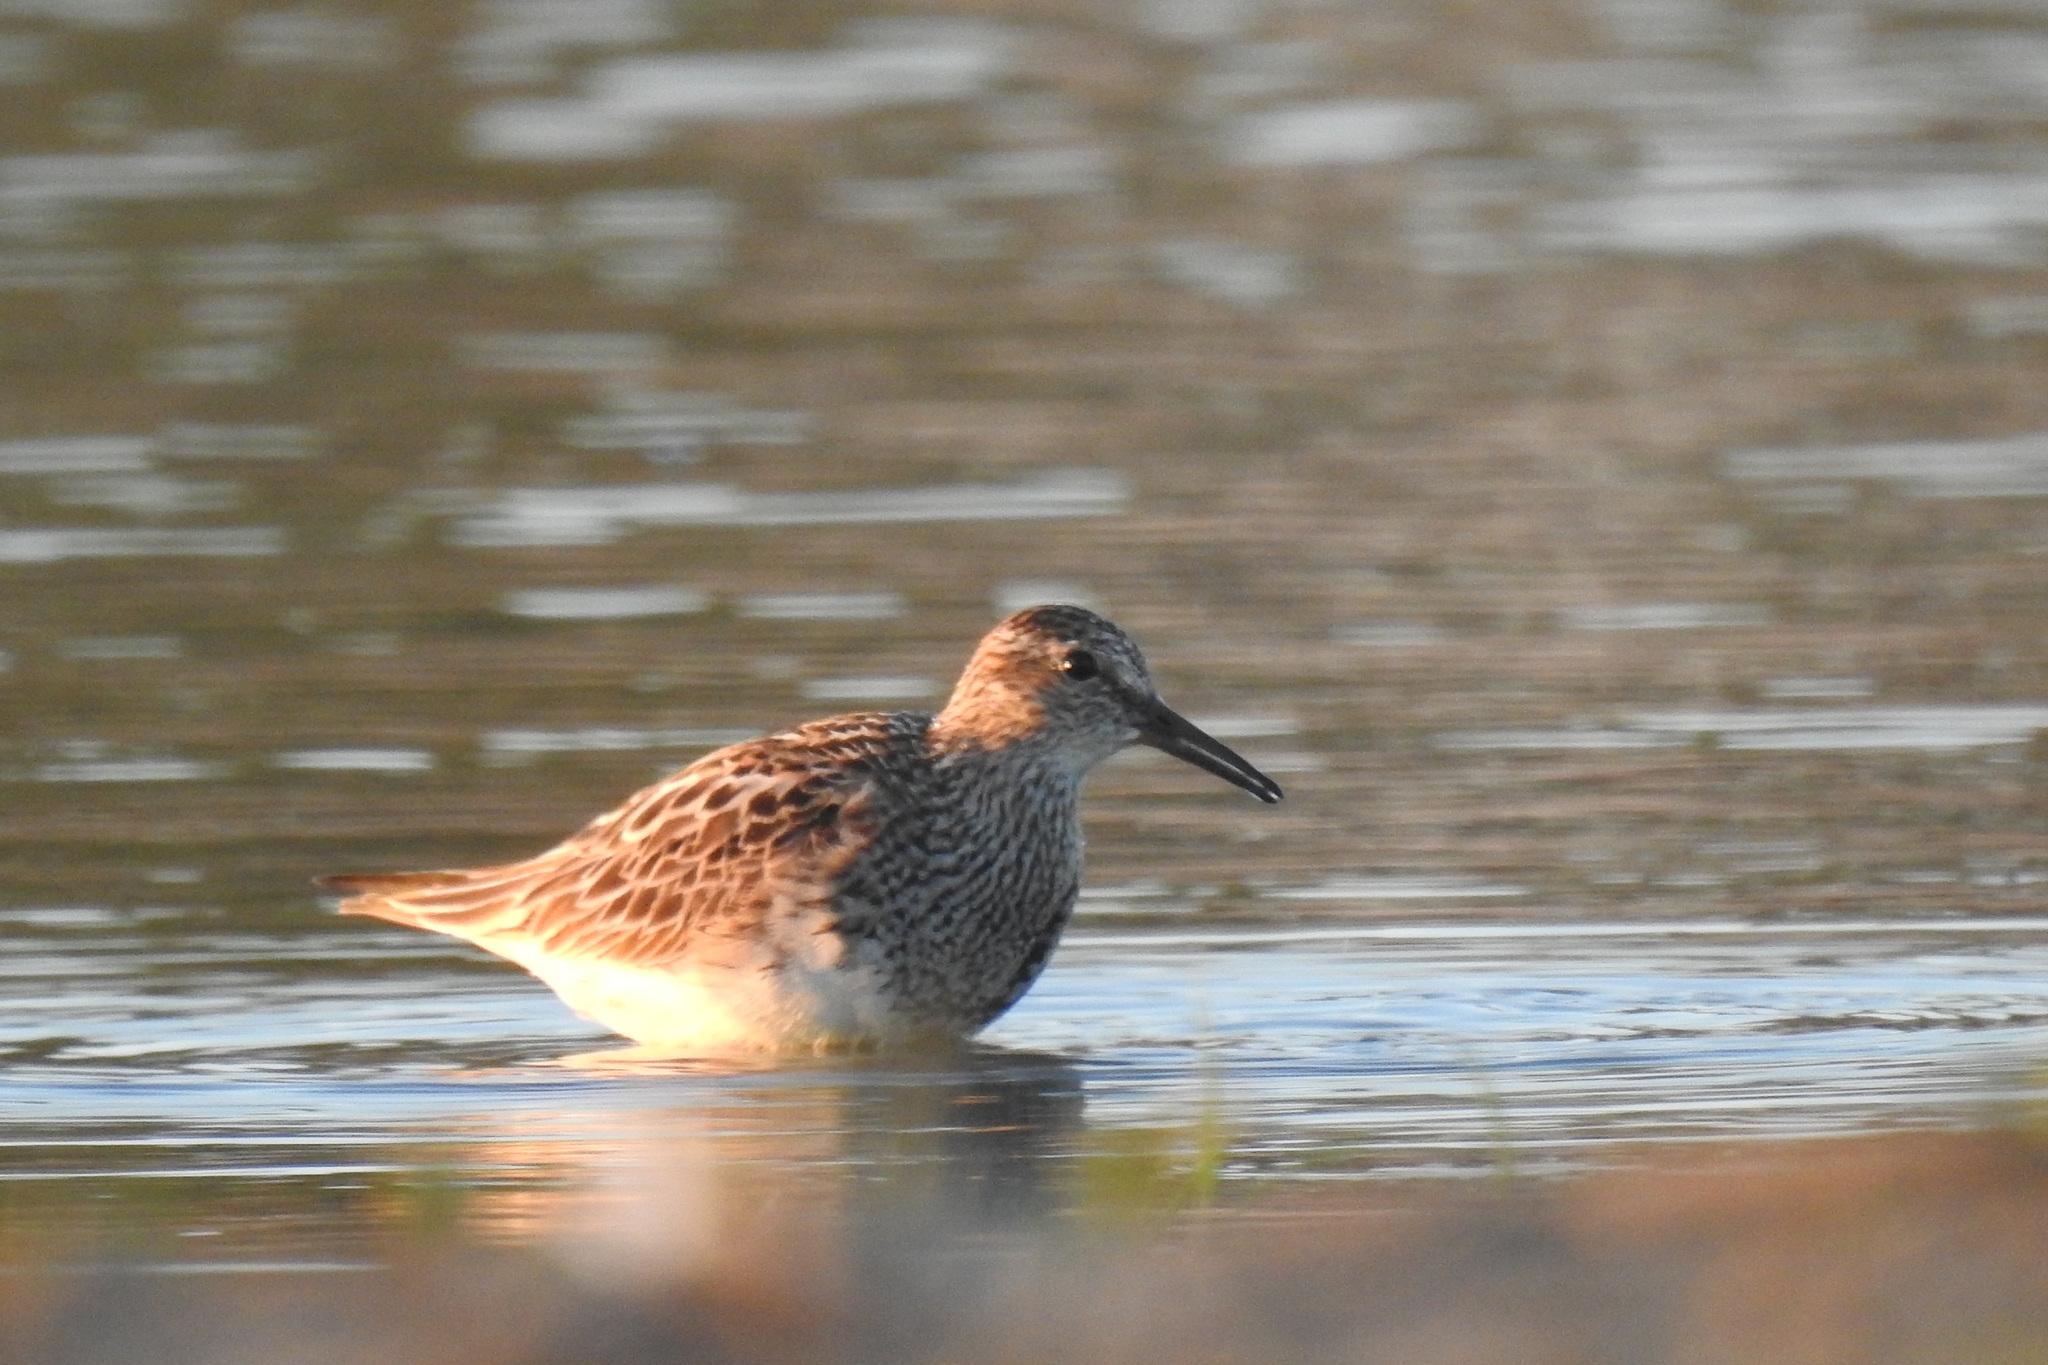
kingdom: Animalia
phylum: Chordata
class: Aves
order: Charadriiformes
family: Scolopacidae
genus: Calidris
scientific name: Calidris melanotos
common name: Pectoral sandpiper
